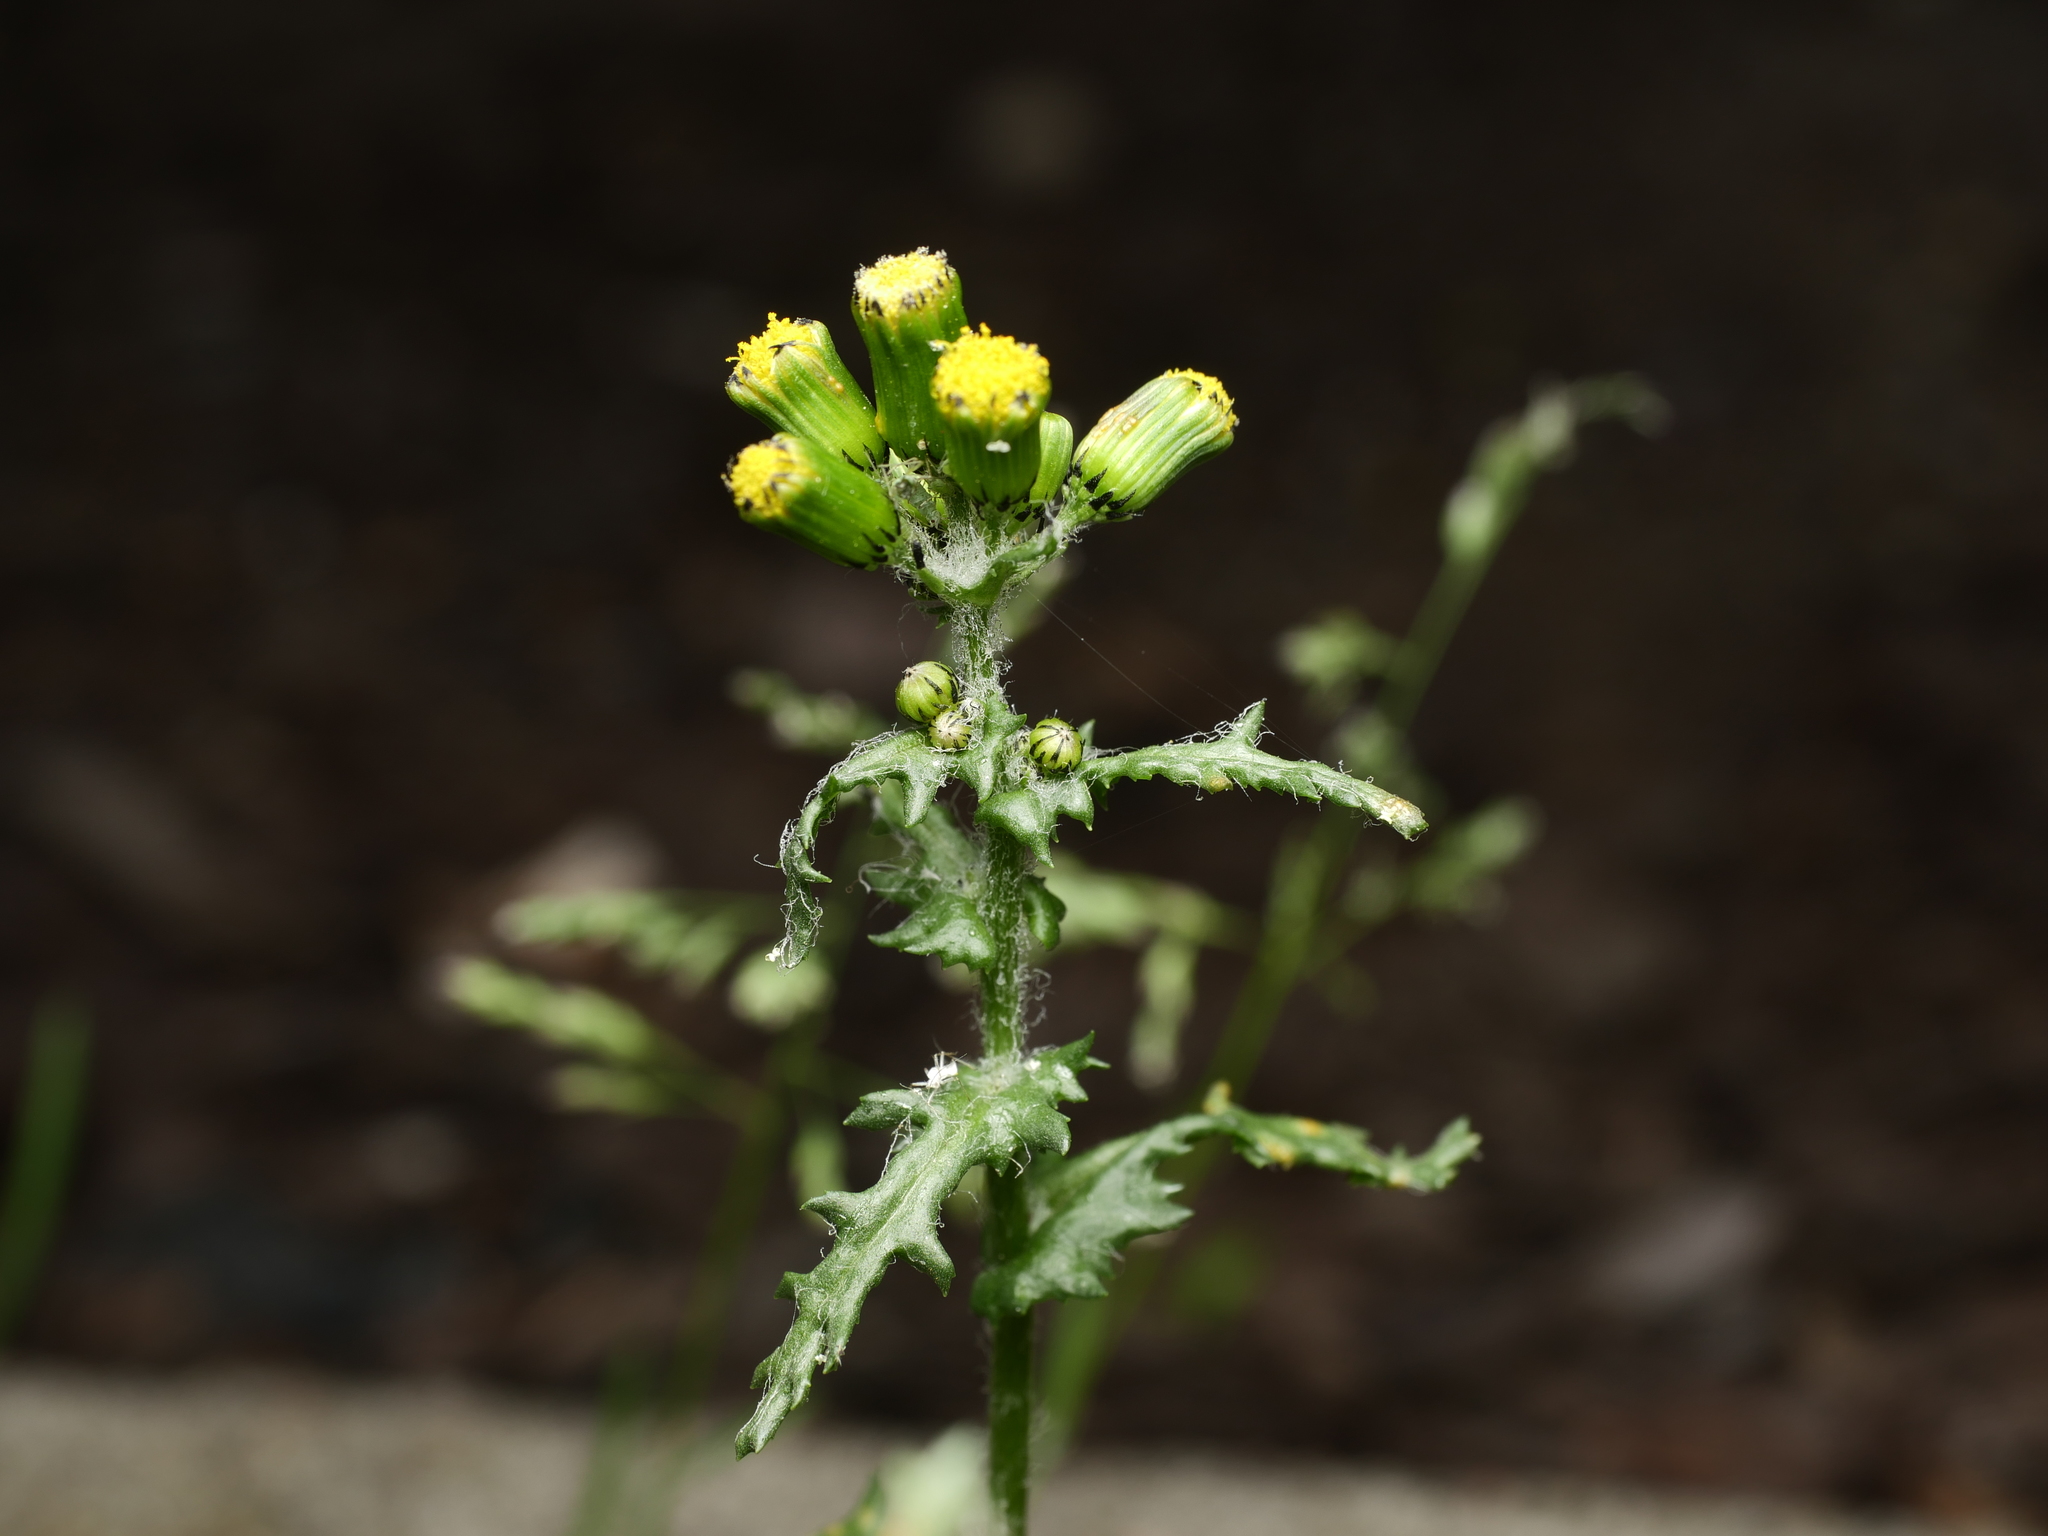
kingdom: Plantae
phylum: Tracheophyta
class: Magnoliopsida
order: Asterales
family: Asteraceae
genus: Senecio
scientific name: Senecio vulgaris
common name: Old-man-in-the-spring
